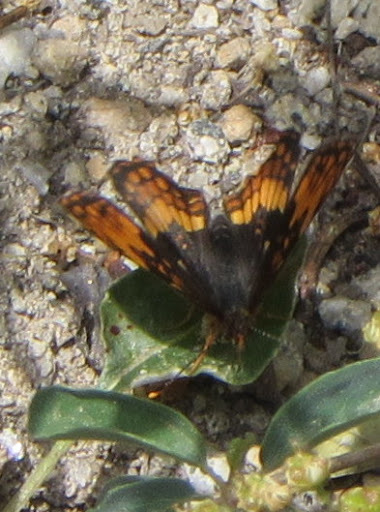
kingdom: Animalia
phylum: Arthropoda
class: Insecta
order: Lepidoptera
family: Nymphalidae
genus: Chlosyne
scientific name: Chlosyne hoffmanni
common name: Hoffmann's checkerspot
